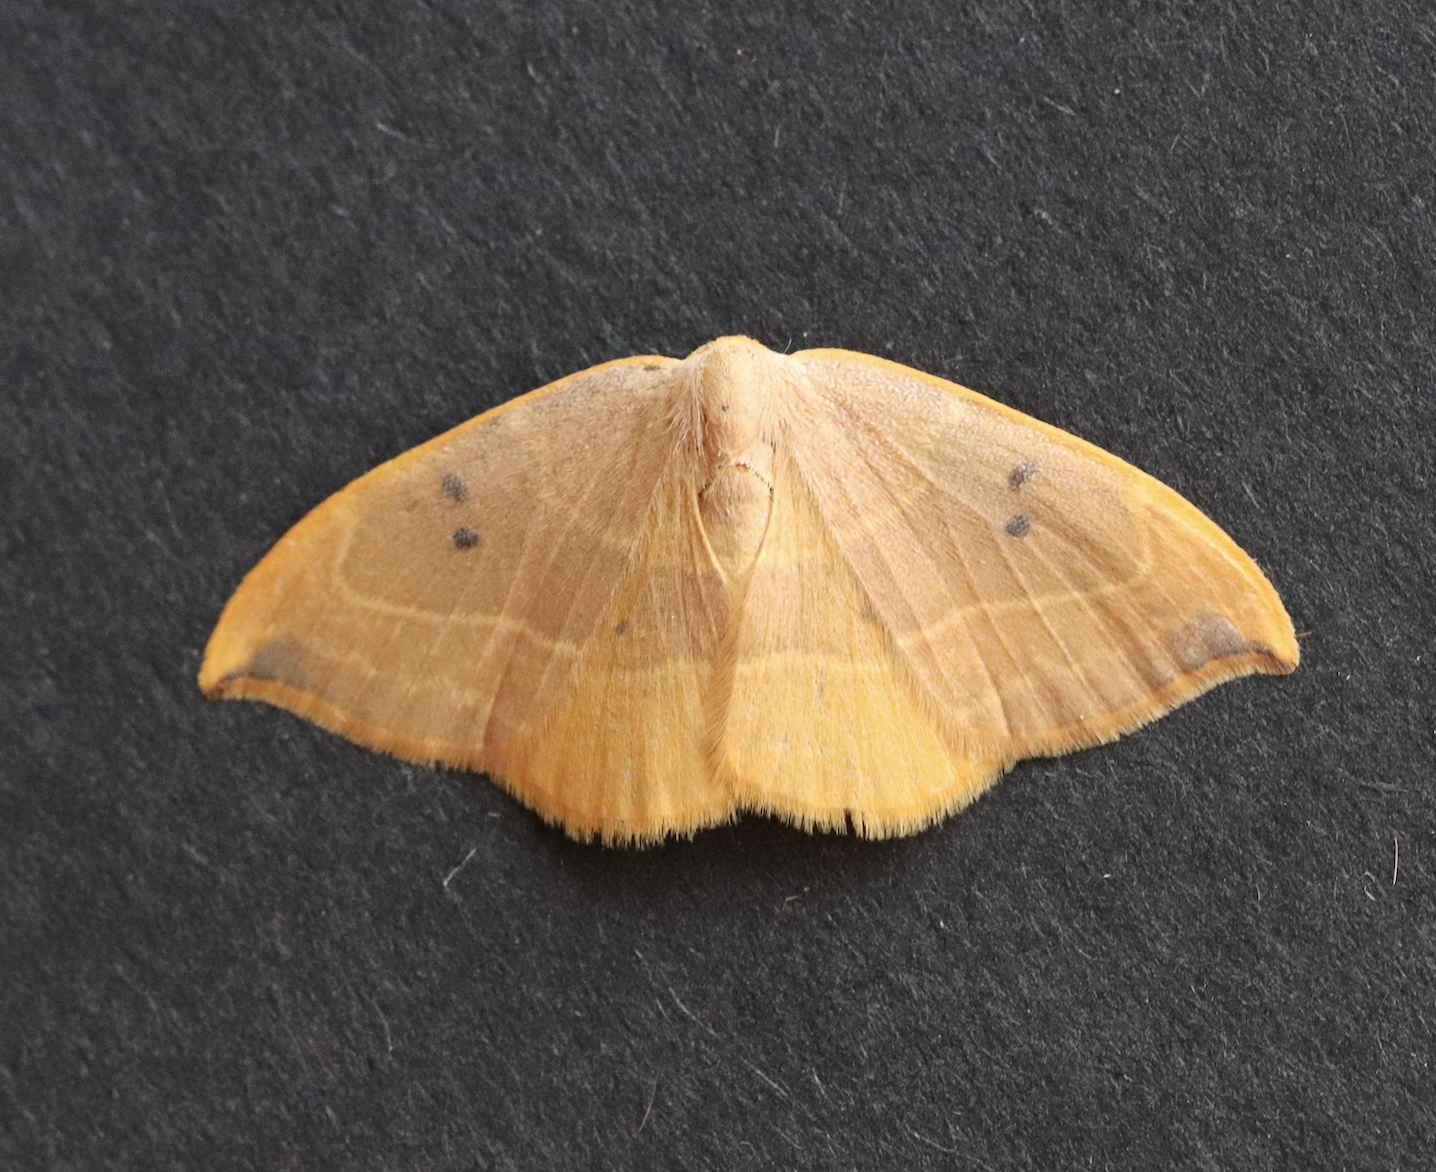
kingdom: Animalia
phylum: Arthropoda
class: Insecta
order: Lepidoptera
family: Drepanidae
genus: Watsonalla
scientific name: Watsonalla binaria
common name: Oak hook-tip
